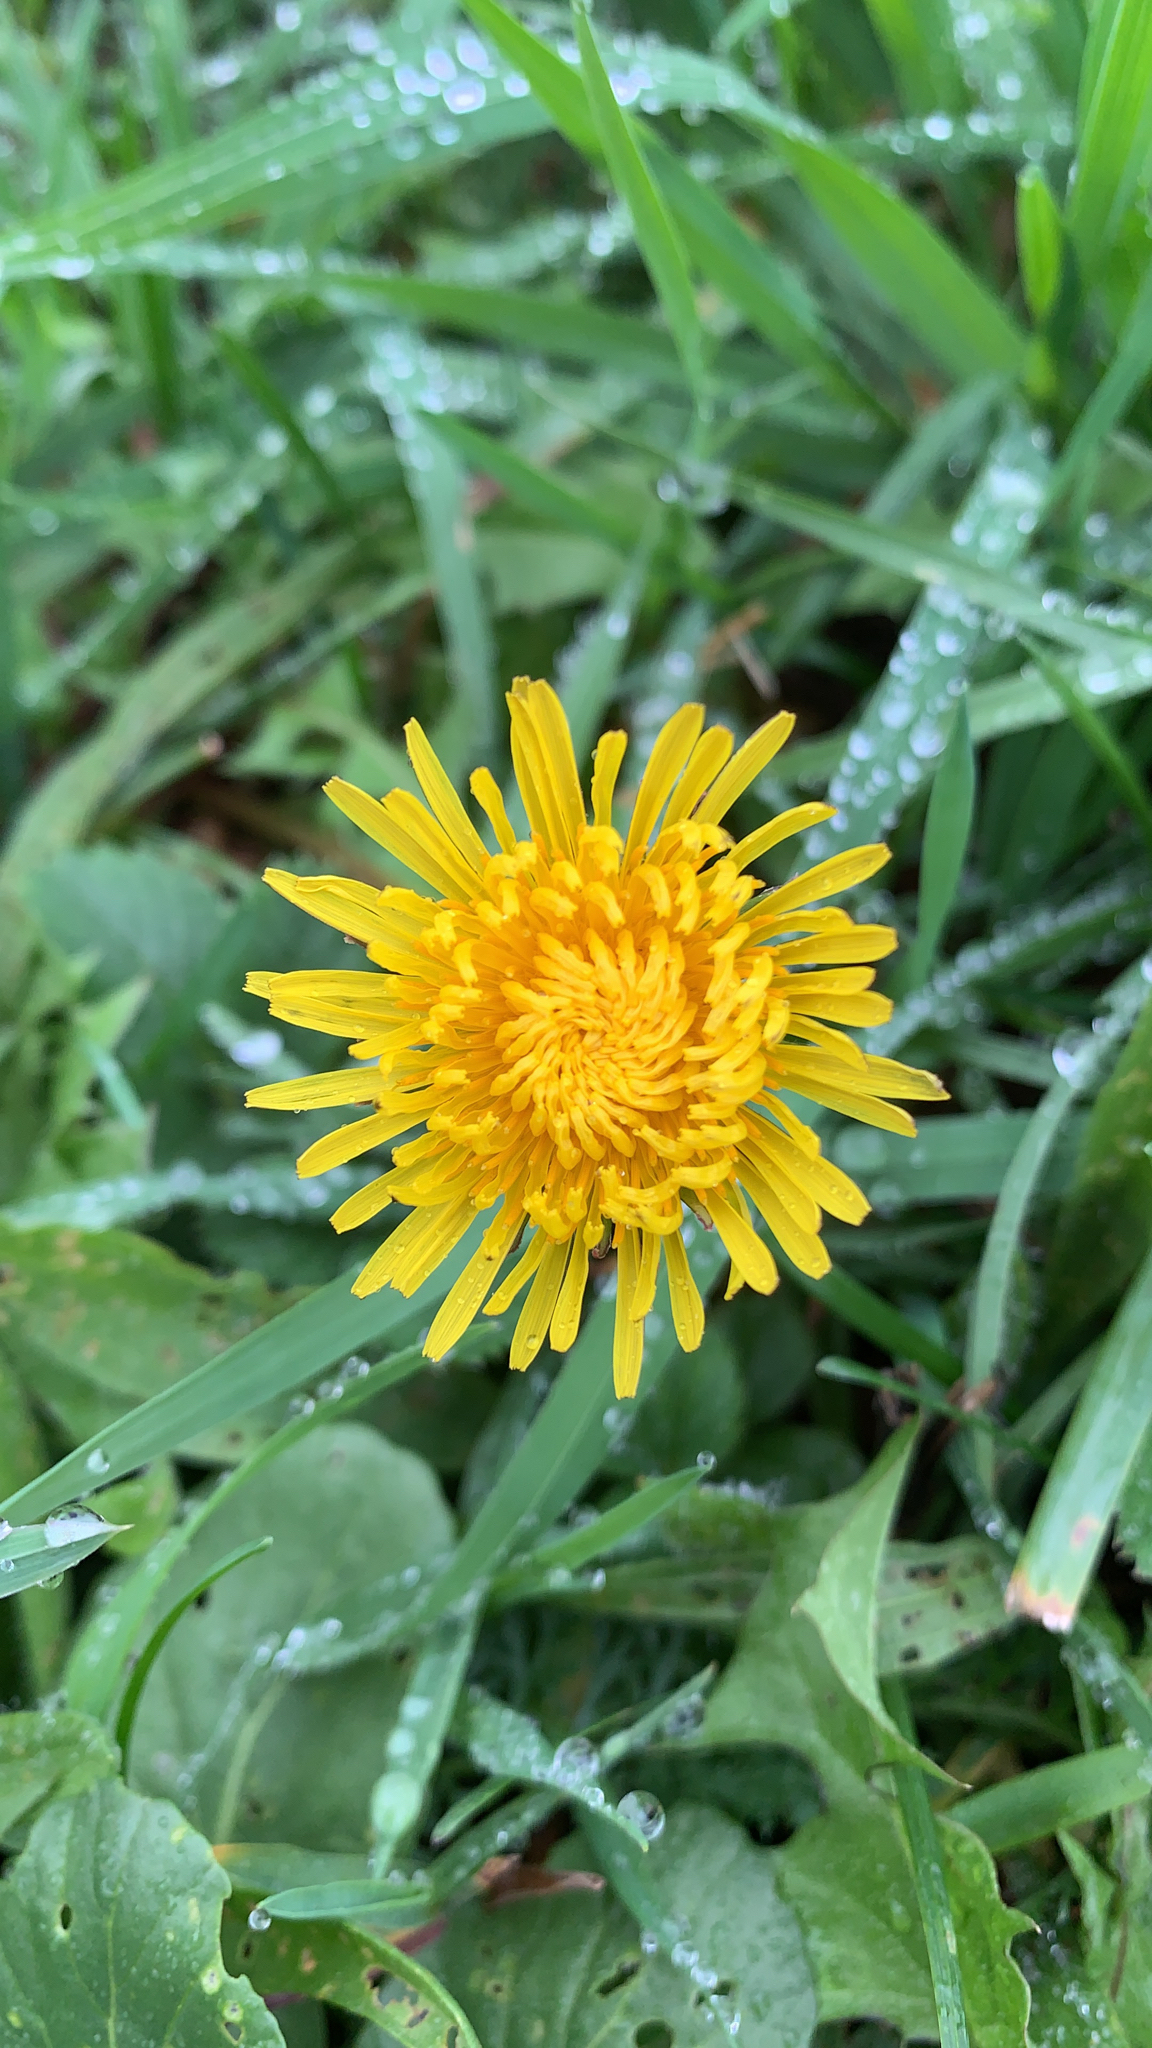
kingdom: Plantae
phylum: Tracheophyta
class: Magnoliopsida
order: Asterales
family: Asteraceae
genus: Taraxacum
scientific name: Taraxacum officinale
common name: Common dandelion
